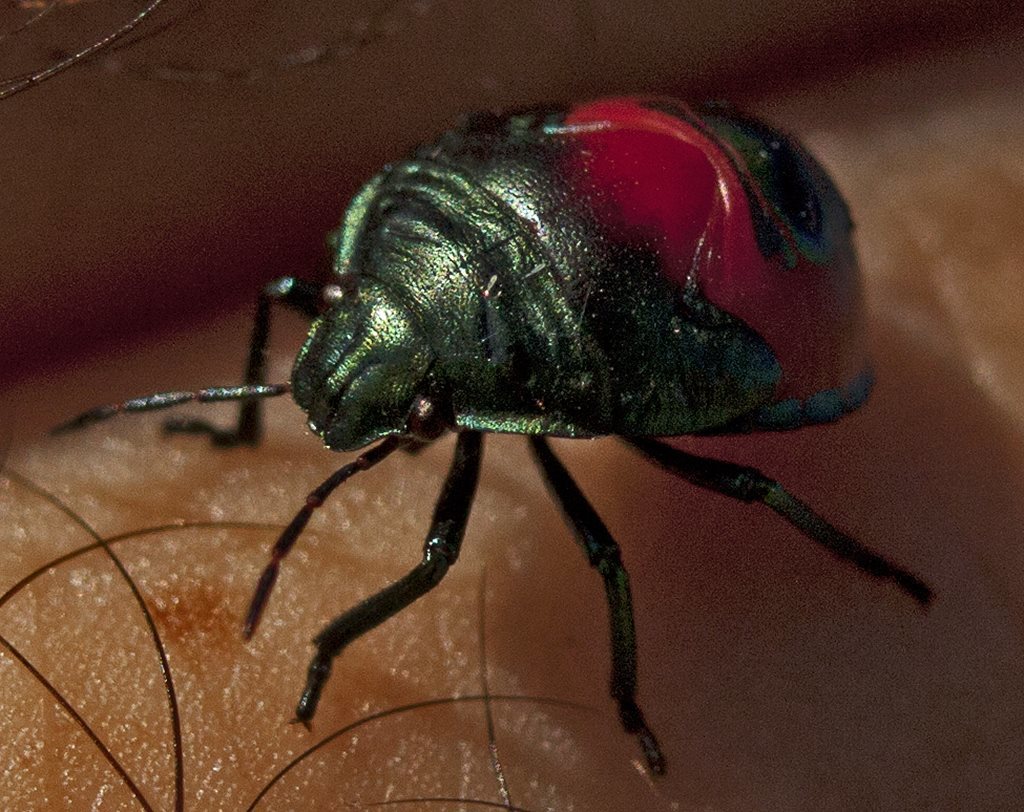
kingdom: Animalia
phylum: Arthropoda
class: Insecta
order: Hemiptera
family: Scutelleridae
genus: Choerocoris
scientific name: Choerocoris paganus
